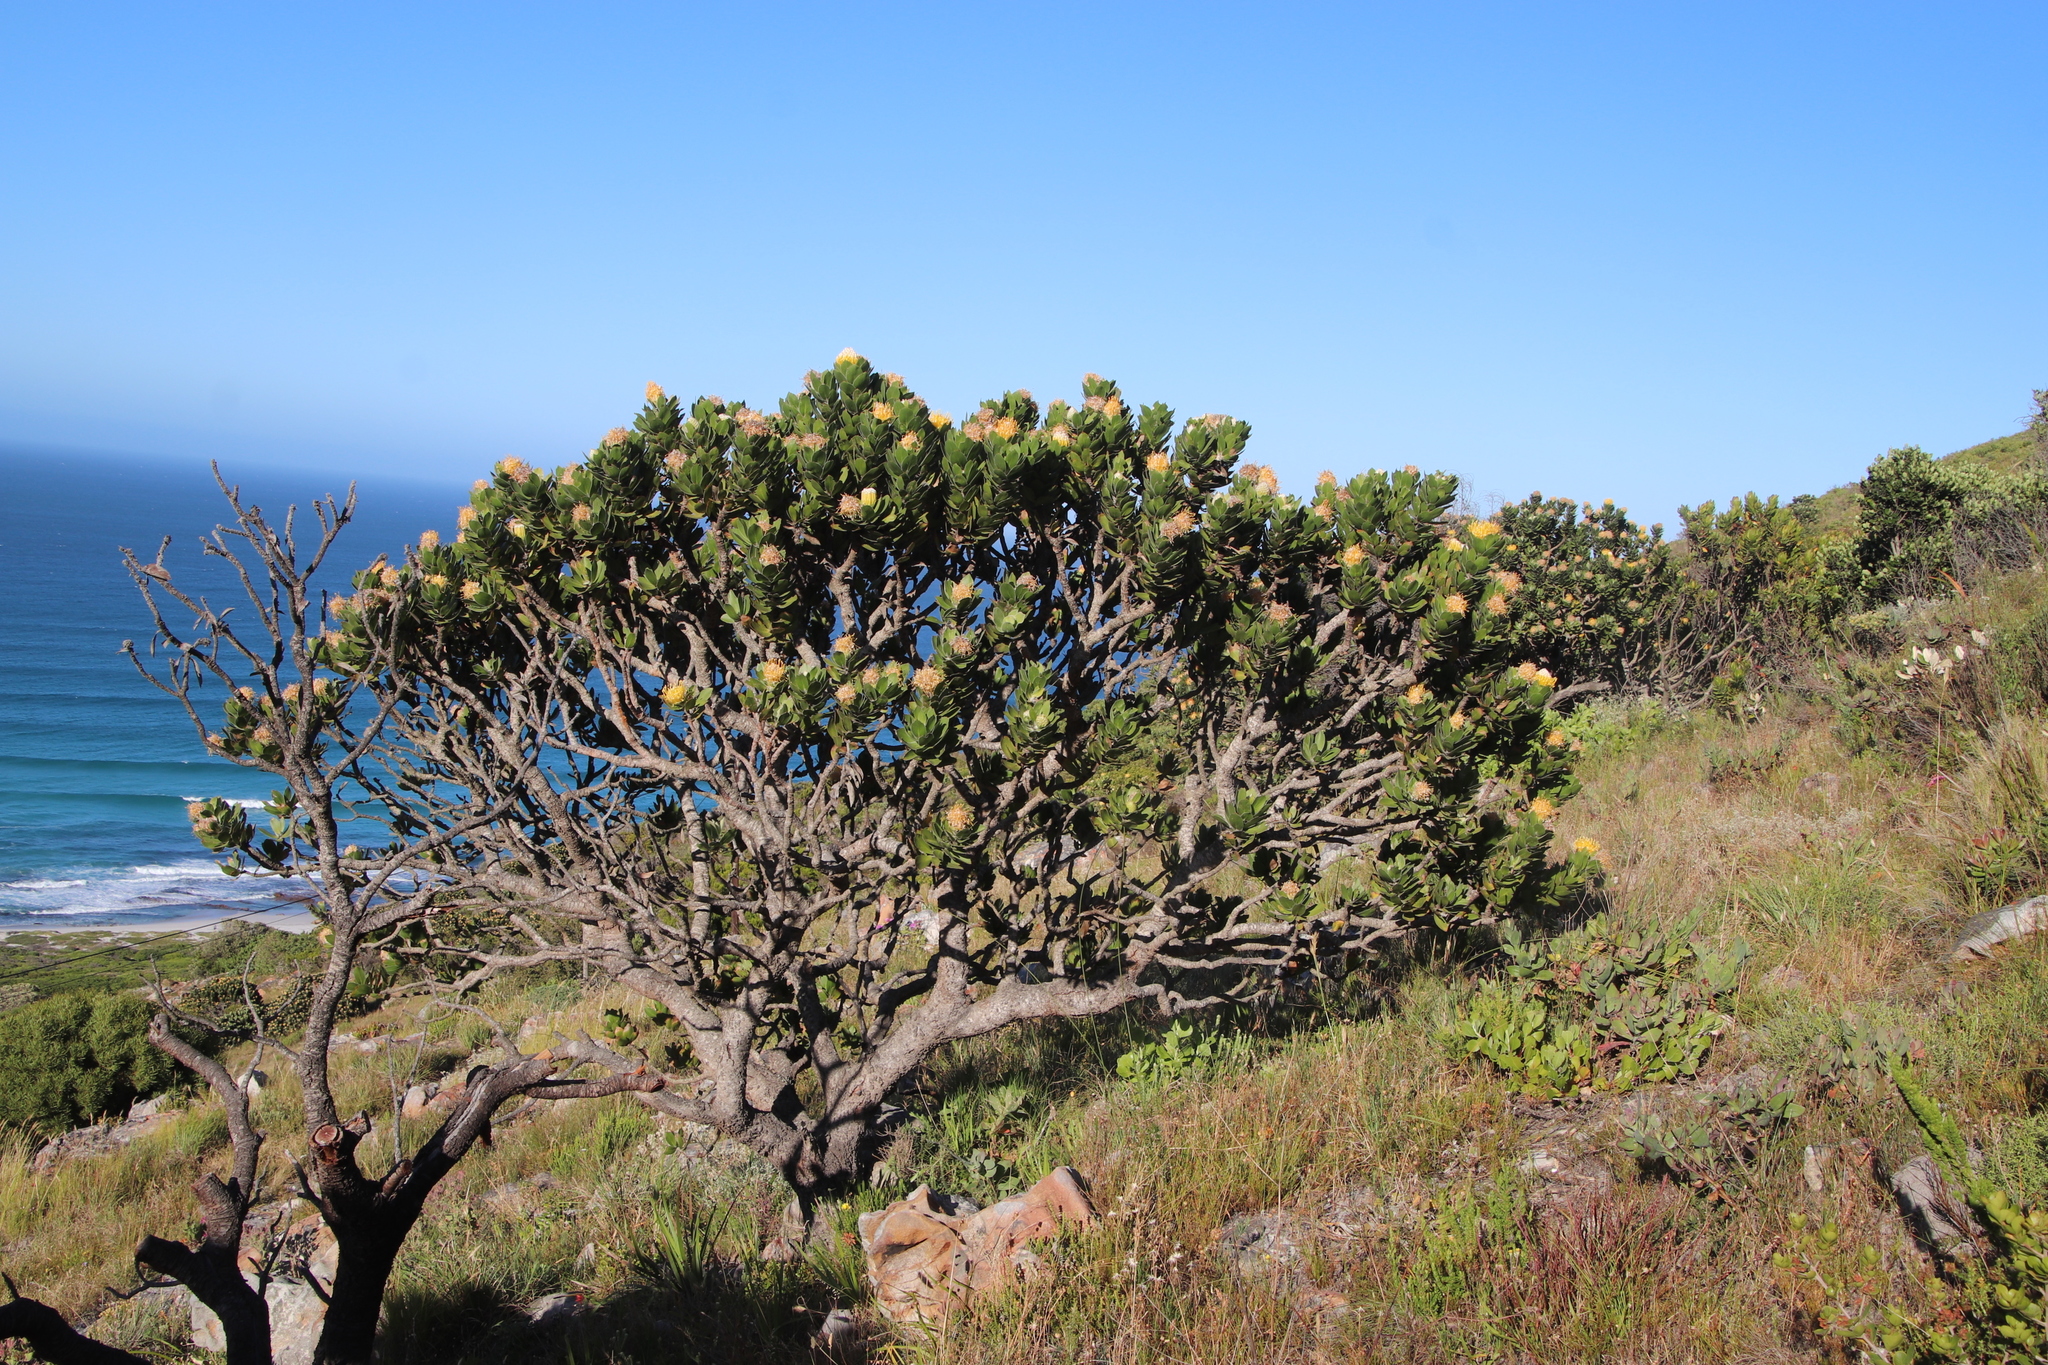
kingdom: Plantae
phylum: Tracheophyta
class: Magnoliopsida
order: Proteales
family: Proteaceae
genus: Leucospermum
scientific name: Leucospermum conocarpodendron
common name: Tree pincushion
